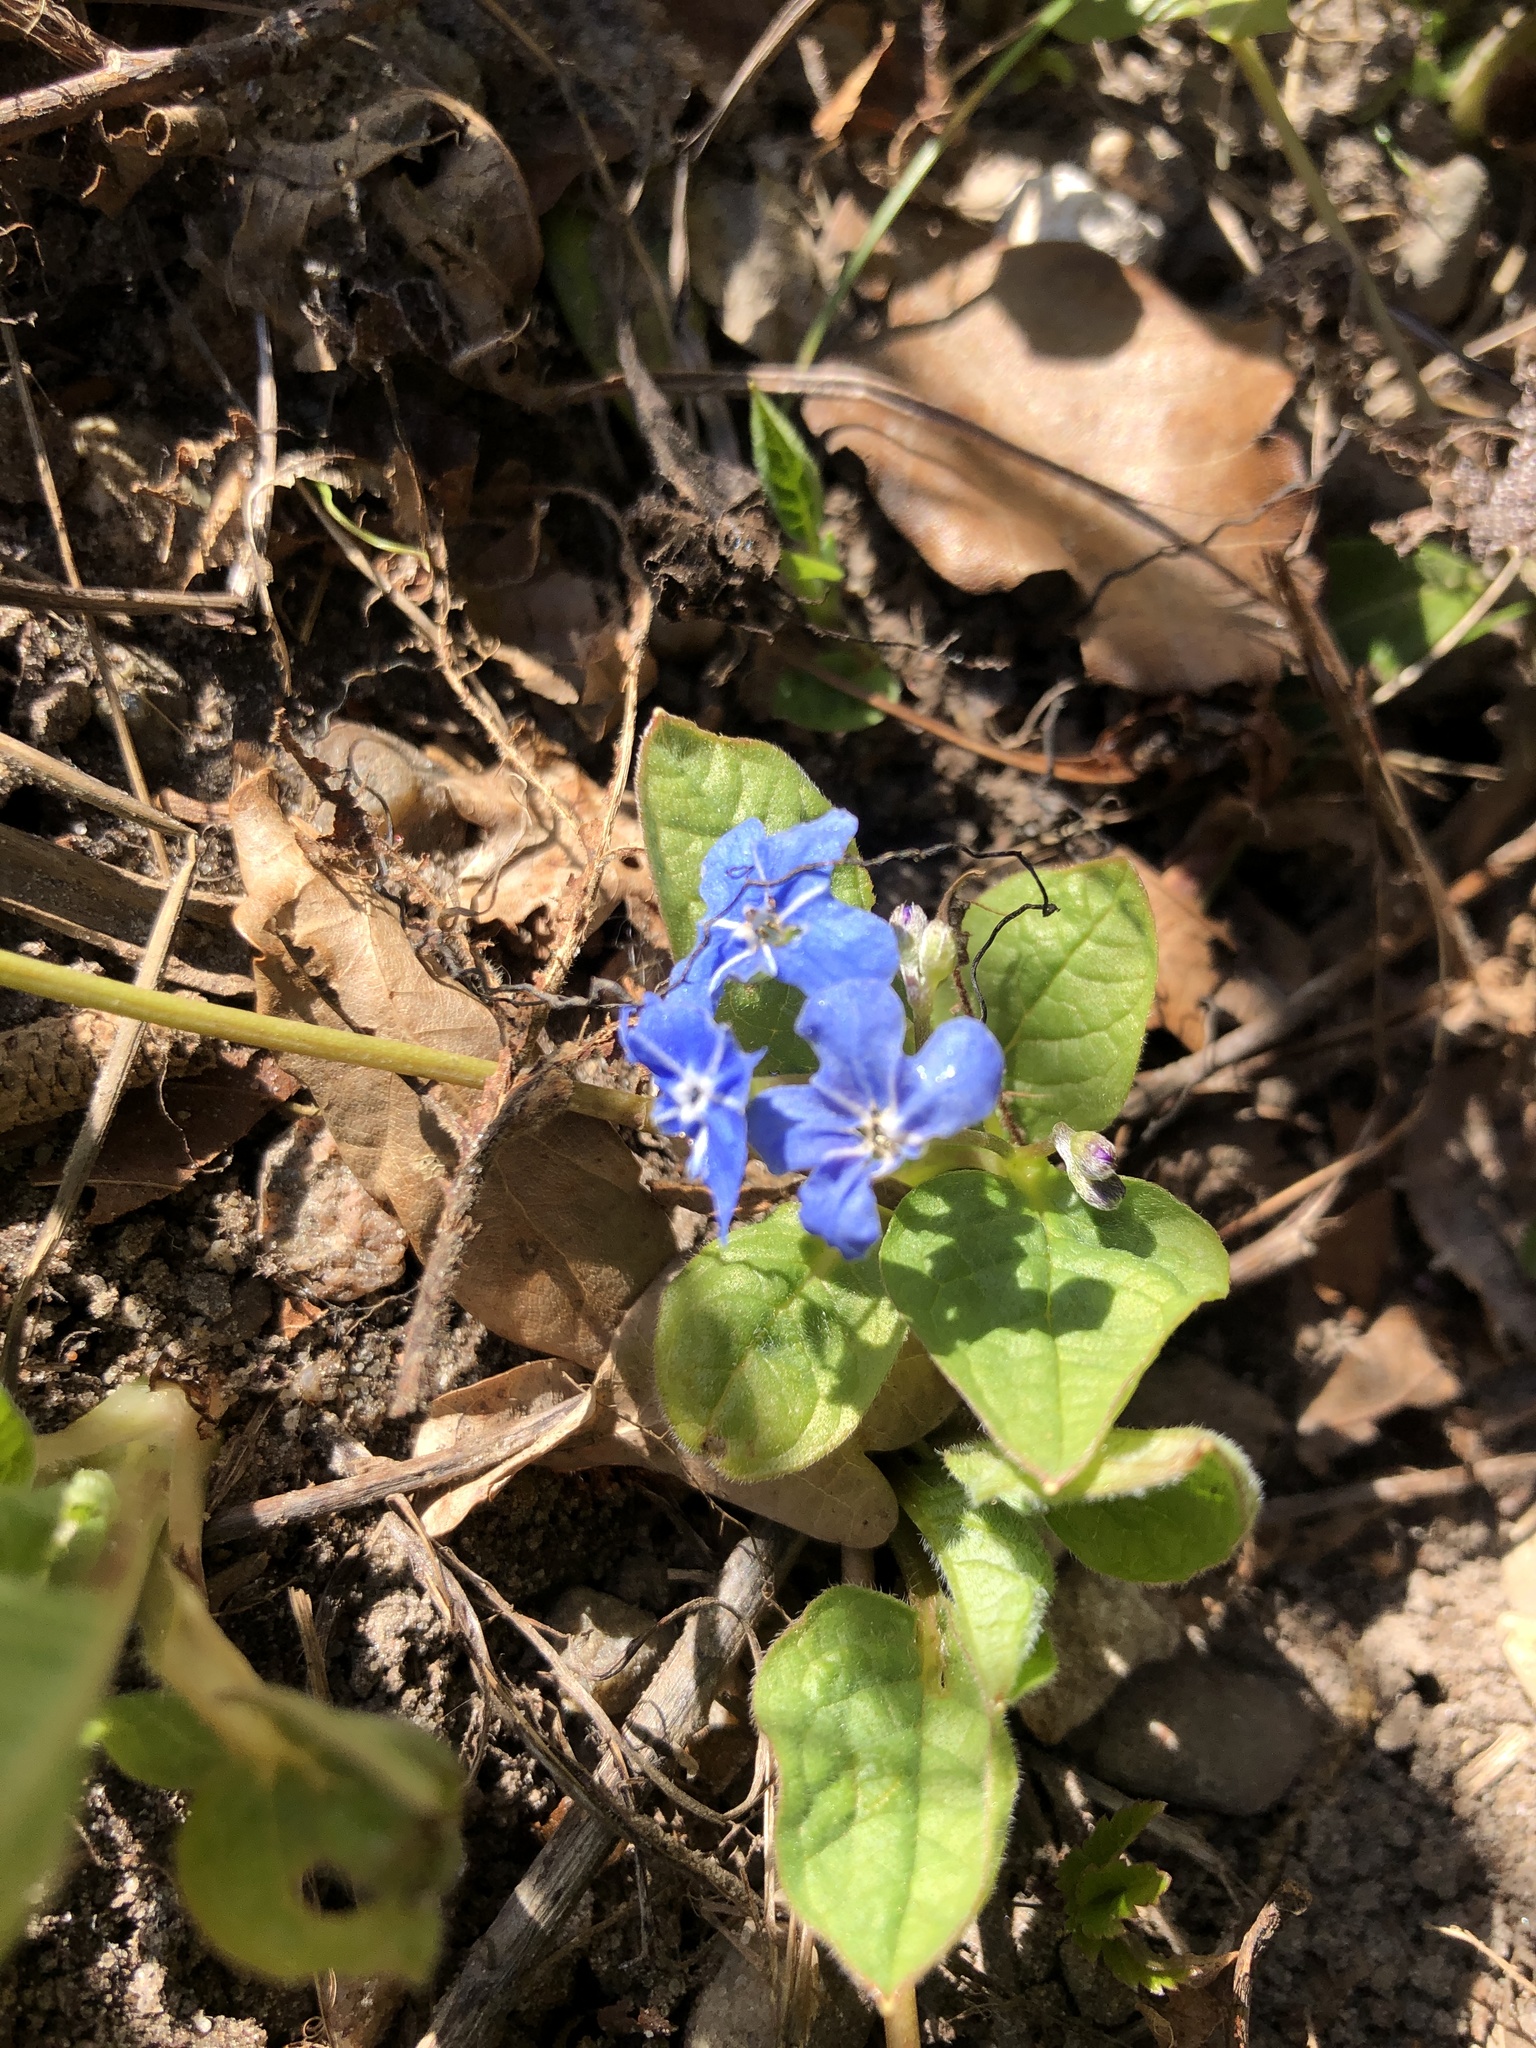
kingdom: Plantae
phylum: Tracheophyta
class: Magnoliopsida
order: Boraginales
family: Boraginaceae
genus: Omphalodes
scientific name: Omphalodes verna
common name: Blue-eyed-mary
